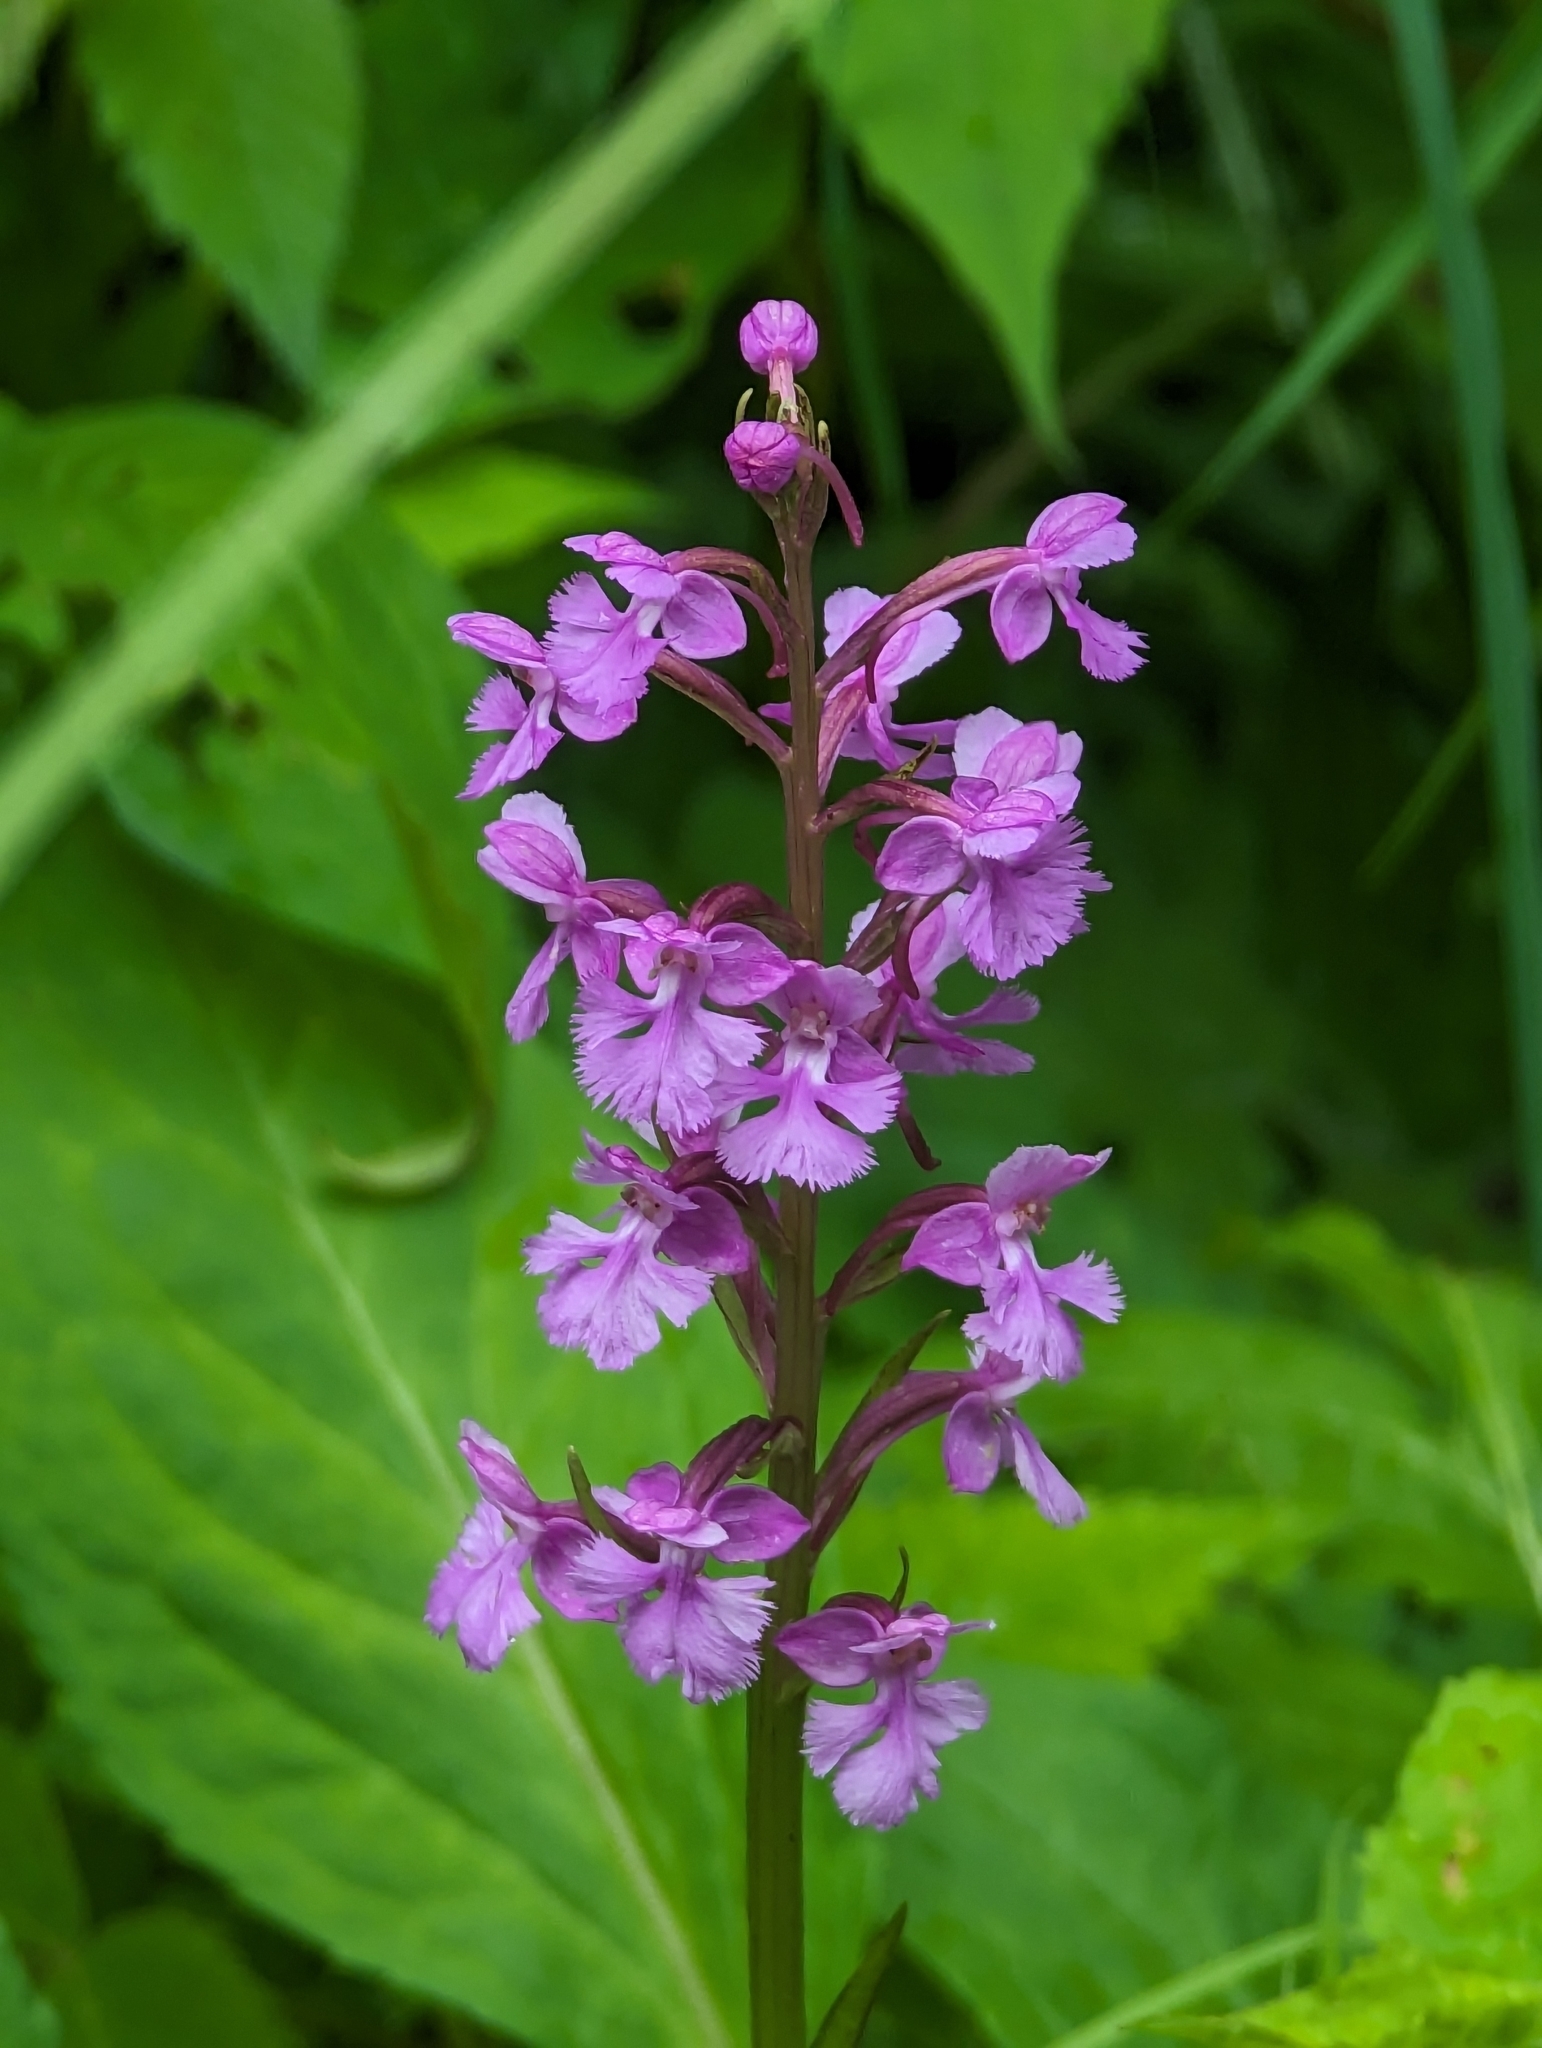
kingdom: Plantae
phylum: Tracheophyta
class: Liliopsida
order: Asparagales
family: Orchidaceae
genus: Platanthera
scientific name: Platanthera psycodes
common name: Lesser purple fringed orchid
